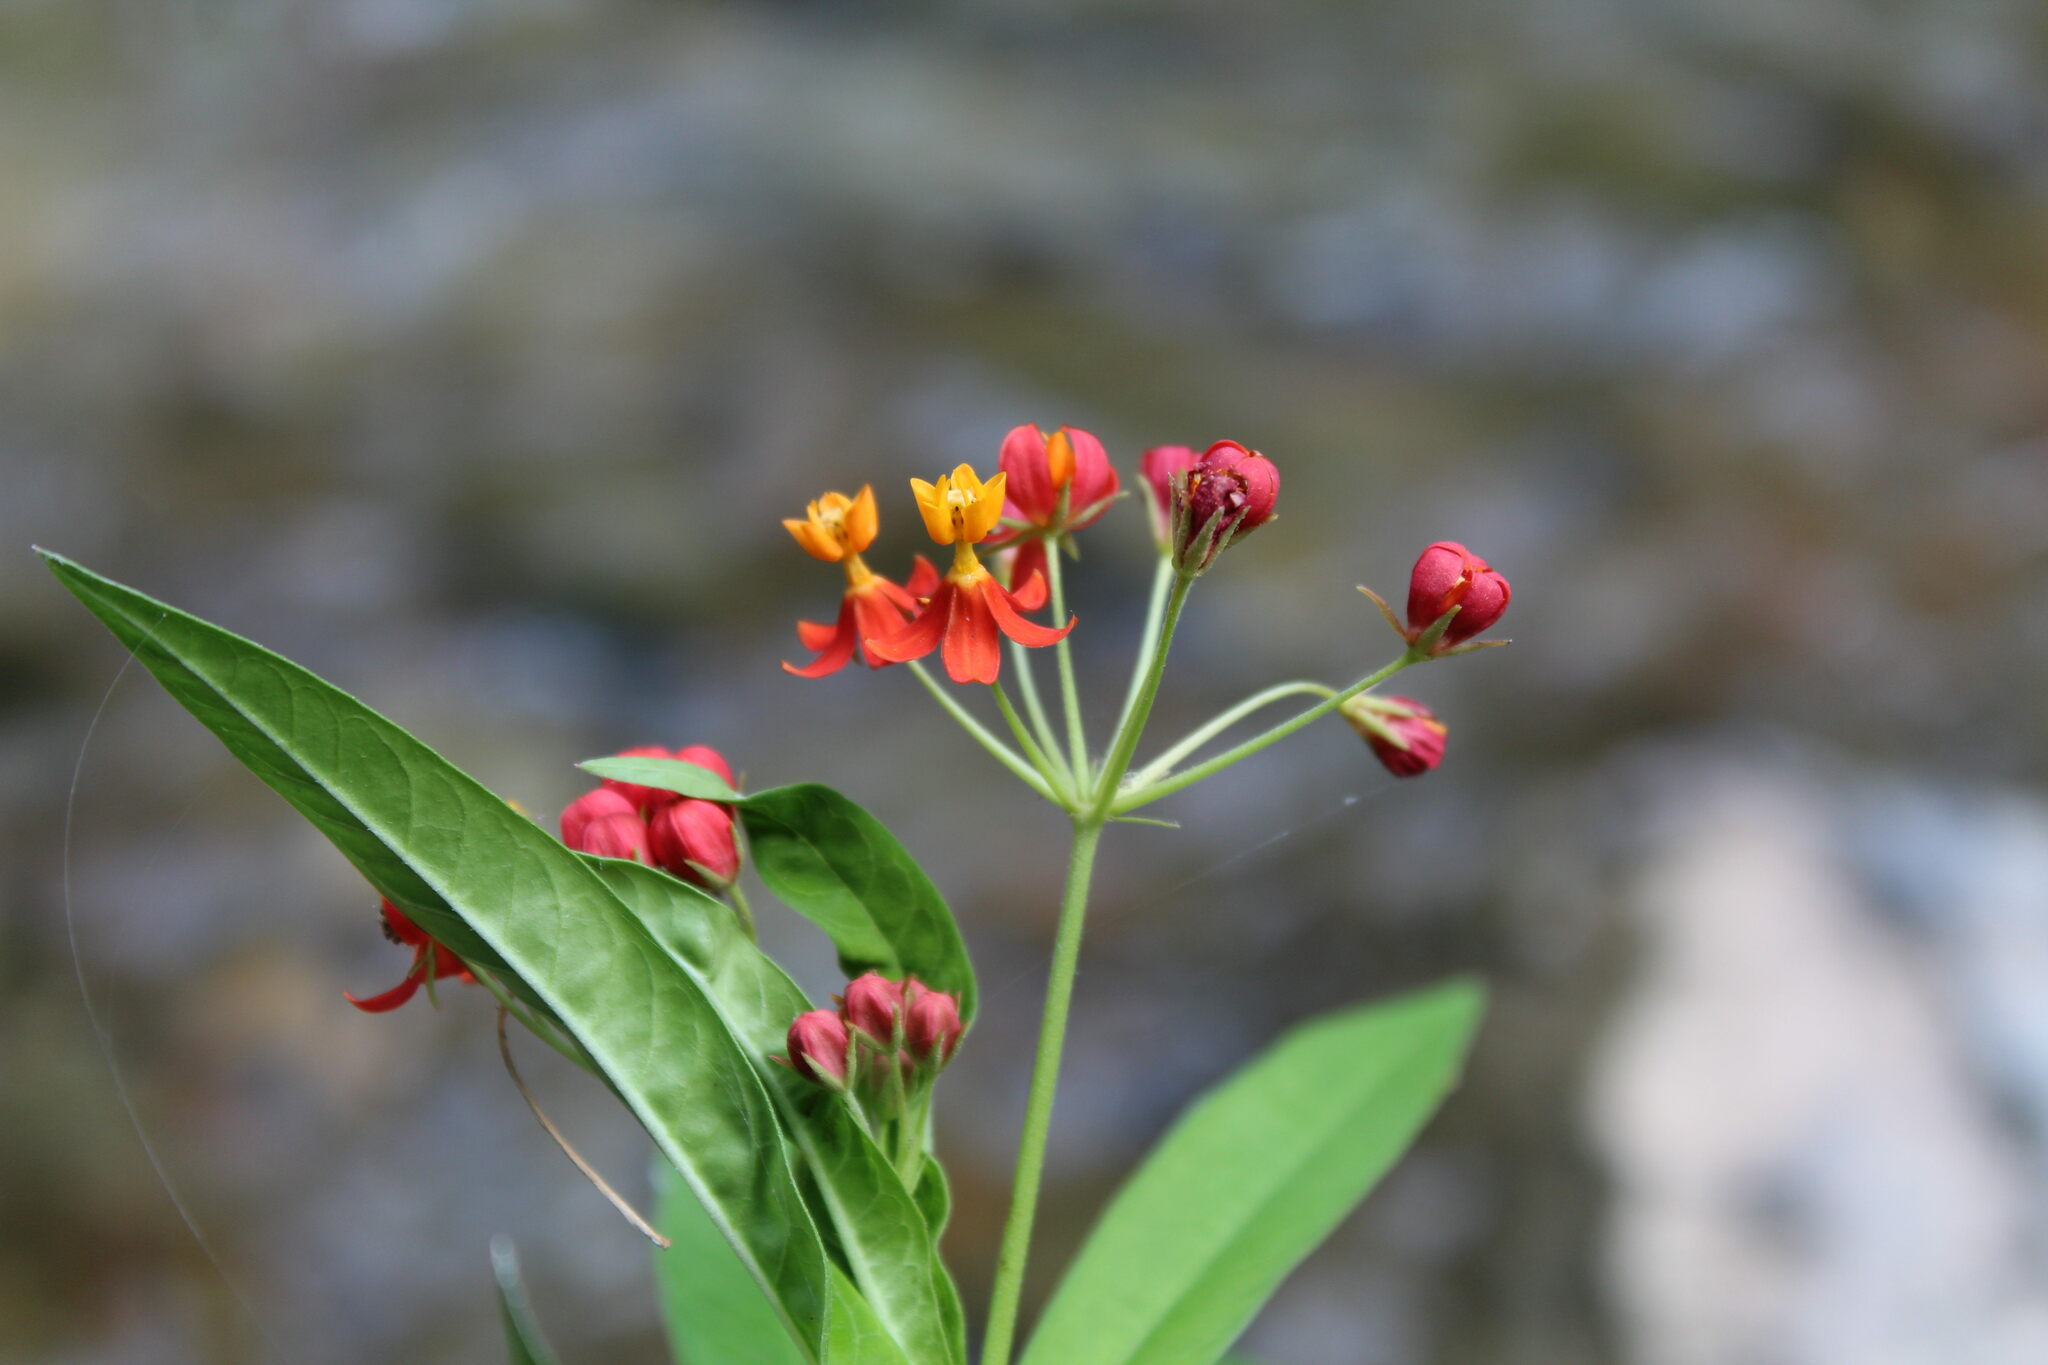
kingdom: Plantae
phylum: Tracheophyta
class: Magnoliopsida
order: Gentianales
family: Apocynaceae
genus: Asclepias
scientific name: Asclepias curassavica
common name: Bloodflower
